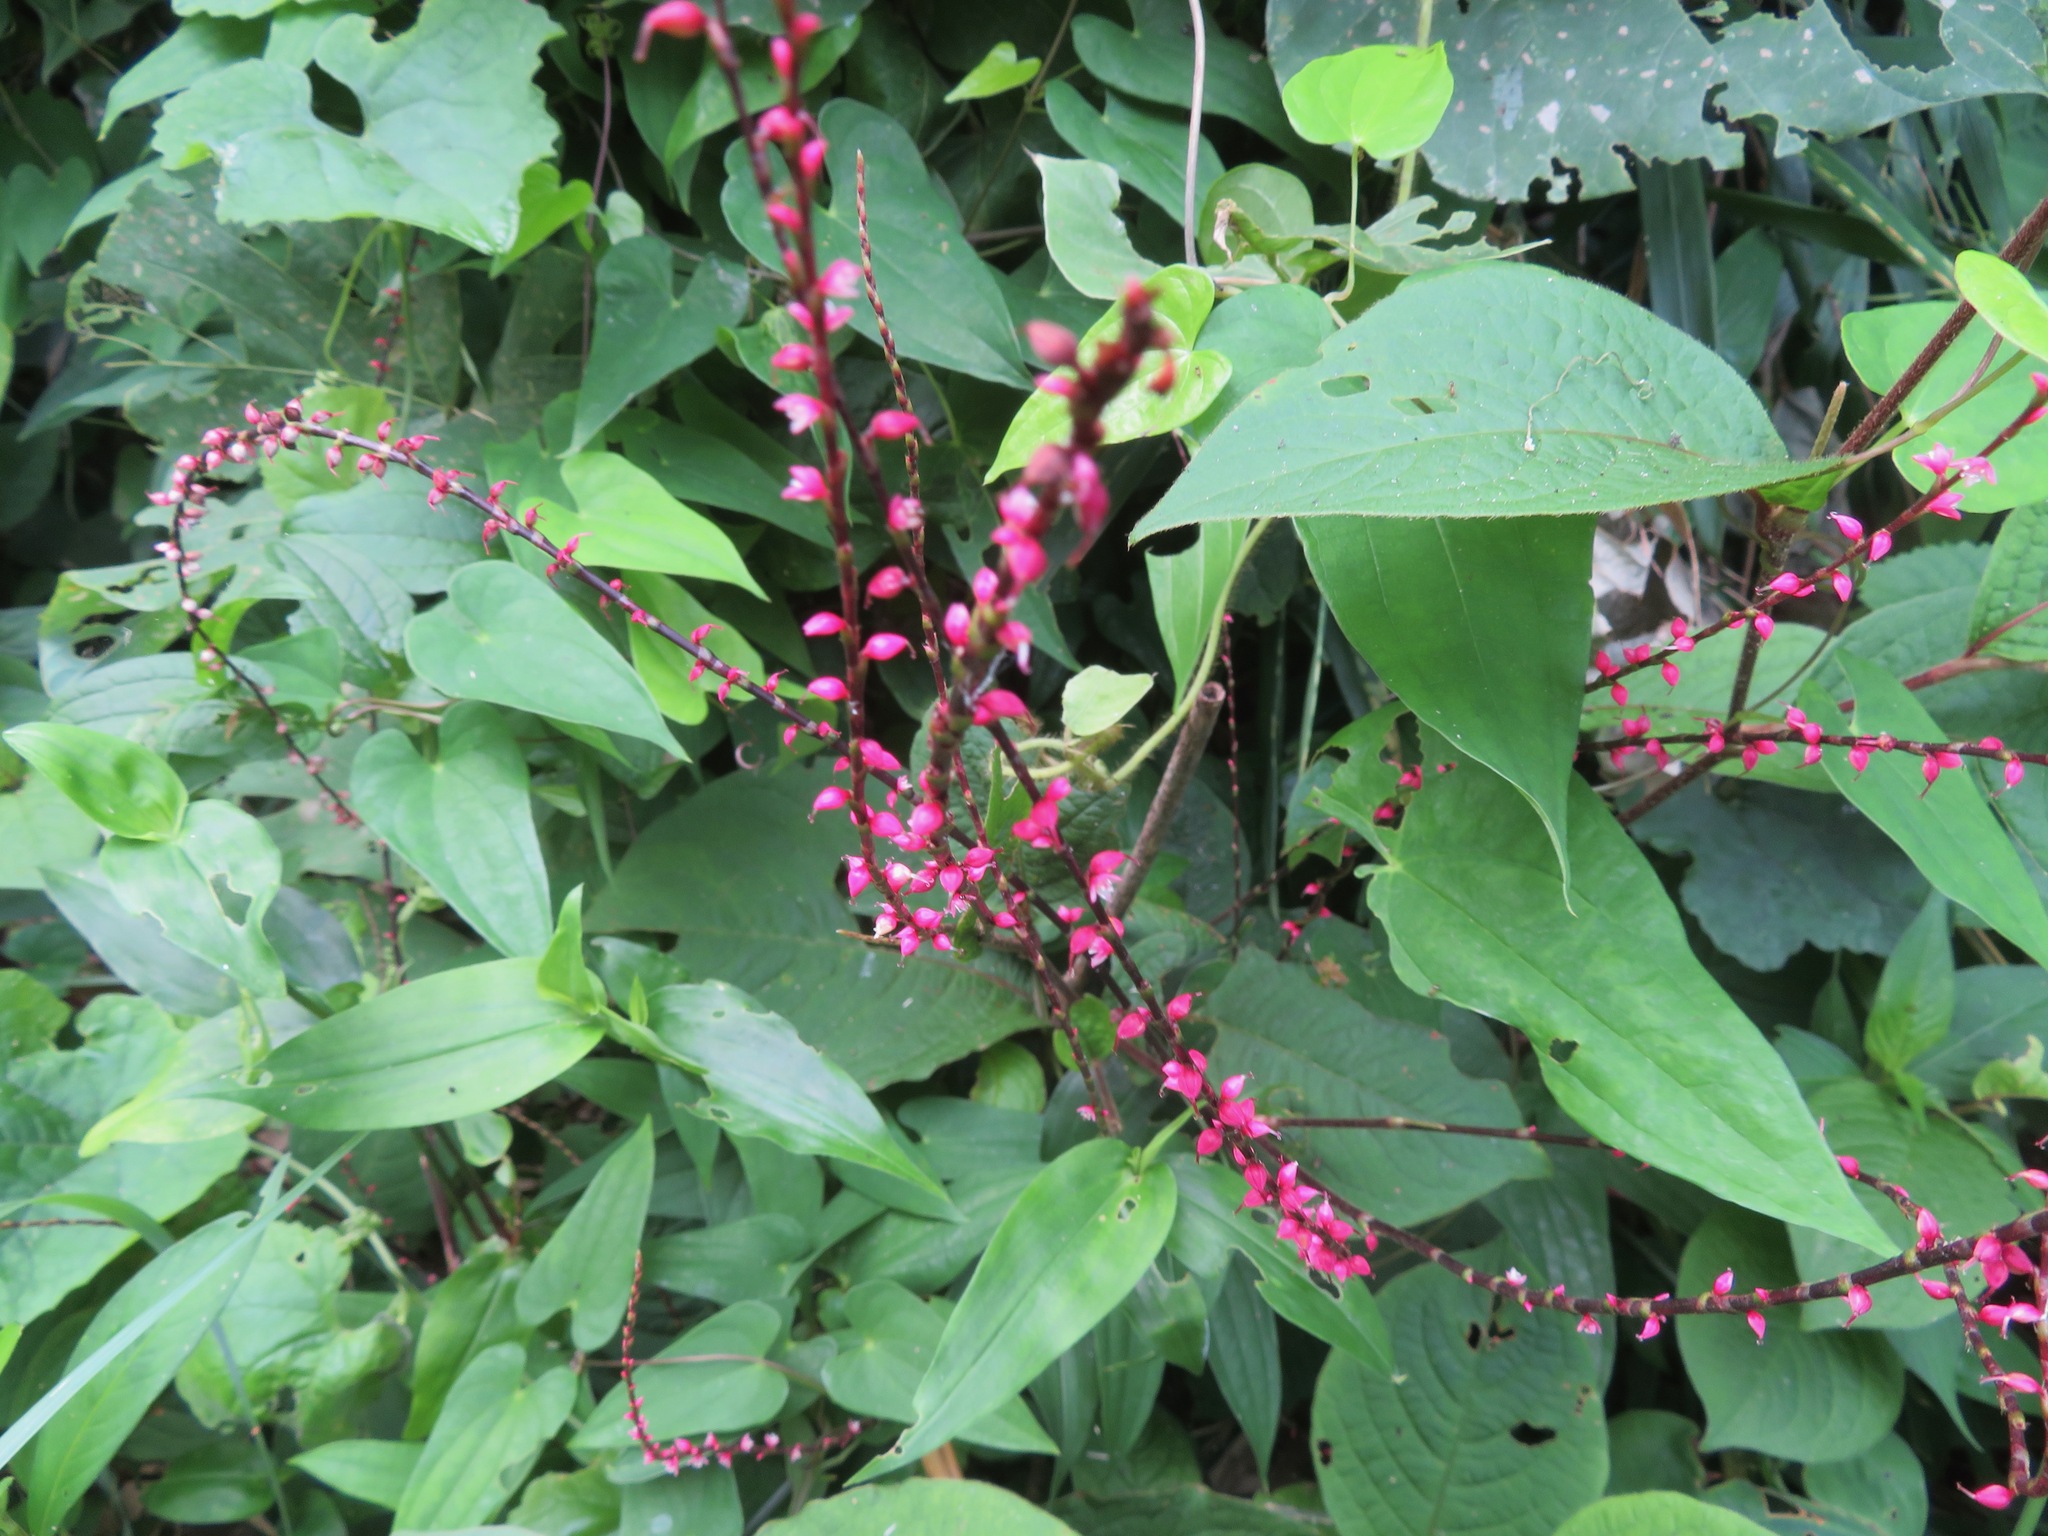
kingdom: Plantae
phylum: Tracheophyta
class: Magnoliopsida
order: Caryophyllales
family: Polygonaceae
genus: Persicaria
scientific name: Persicaria filiformis
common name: Asian jumpseed
